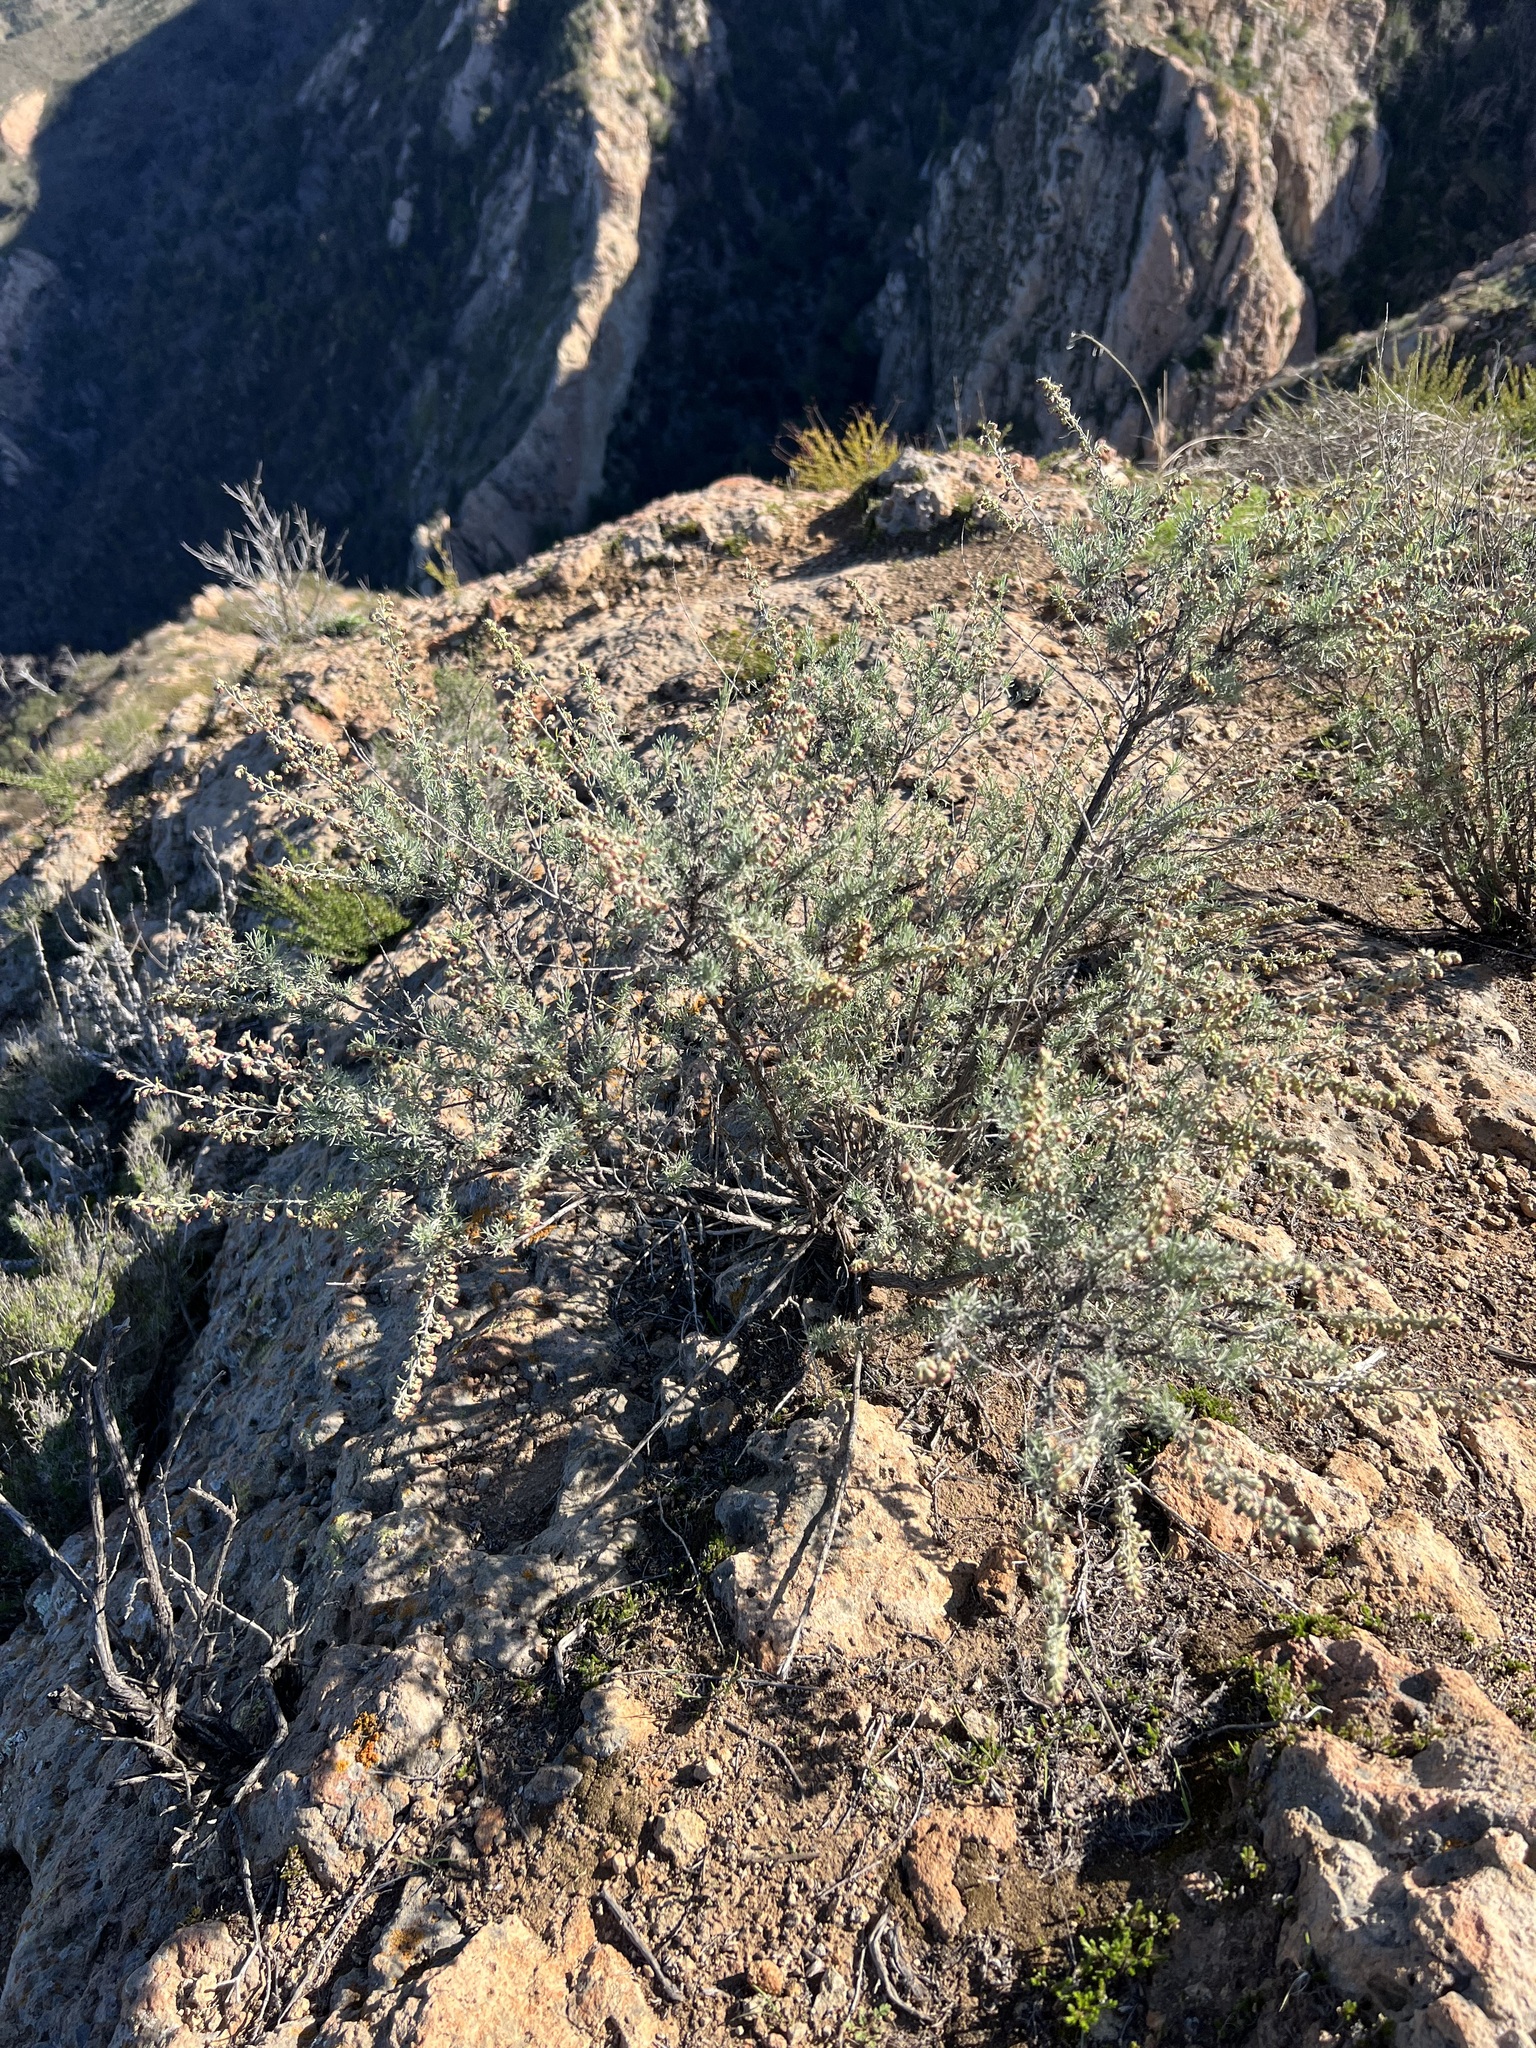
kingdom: Plantae
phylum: Tracheophyta
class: Magnoliopsida
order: Asterales
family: Asteraceae
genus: Artemisia
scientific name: Artemisia californica
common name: California sagebrush
